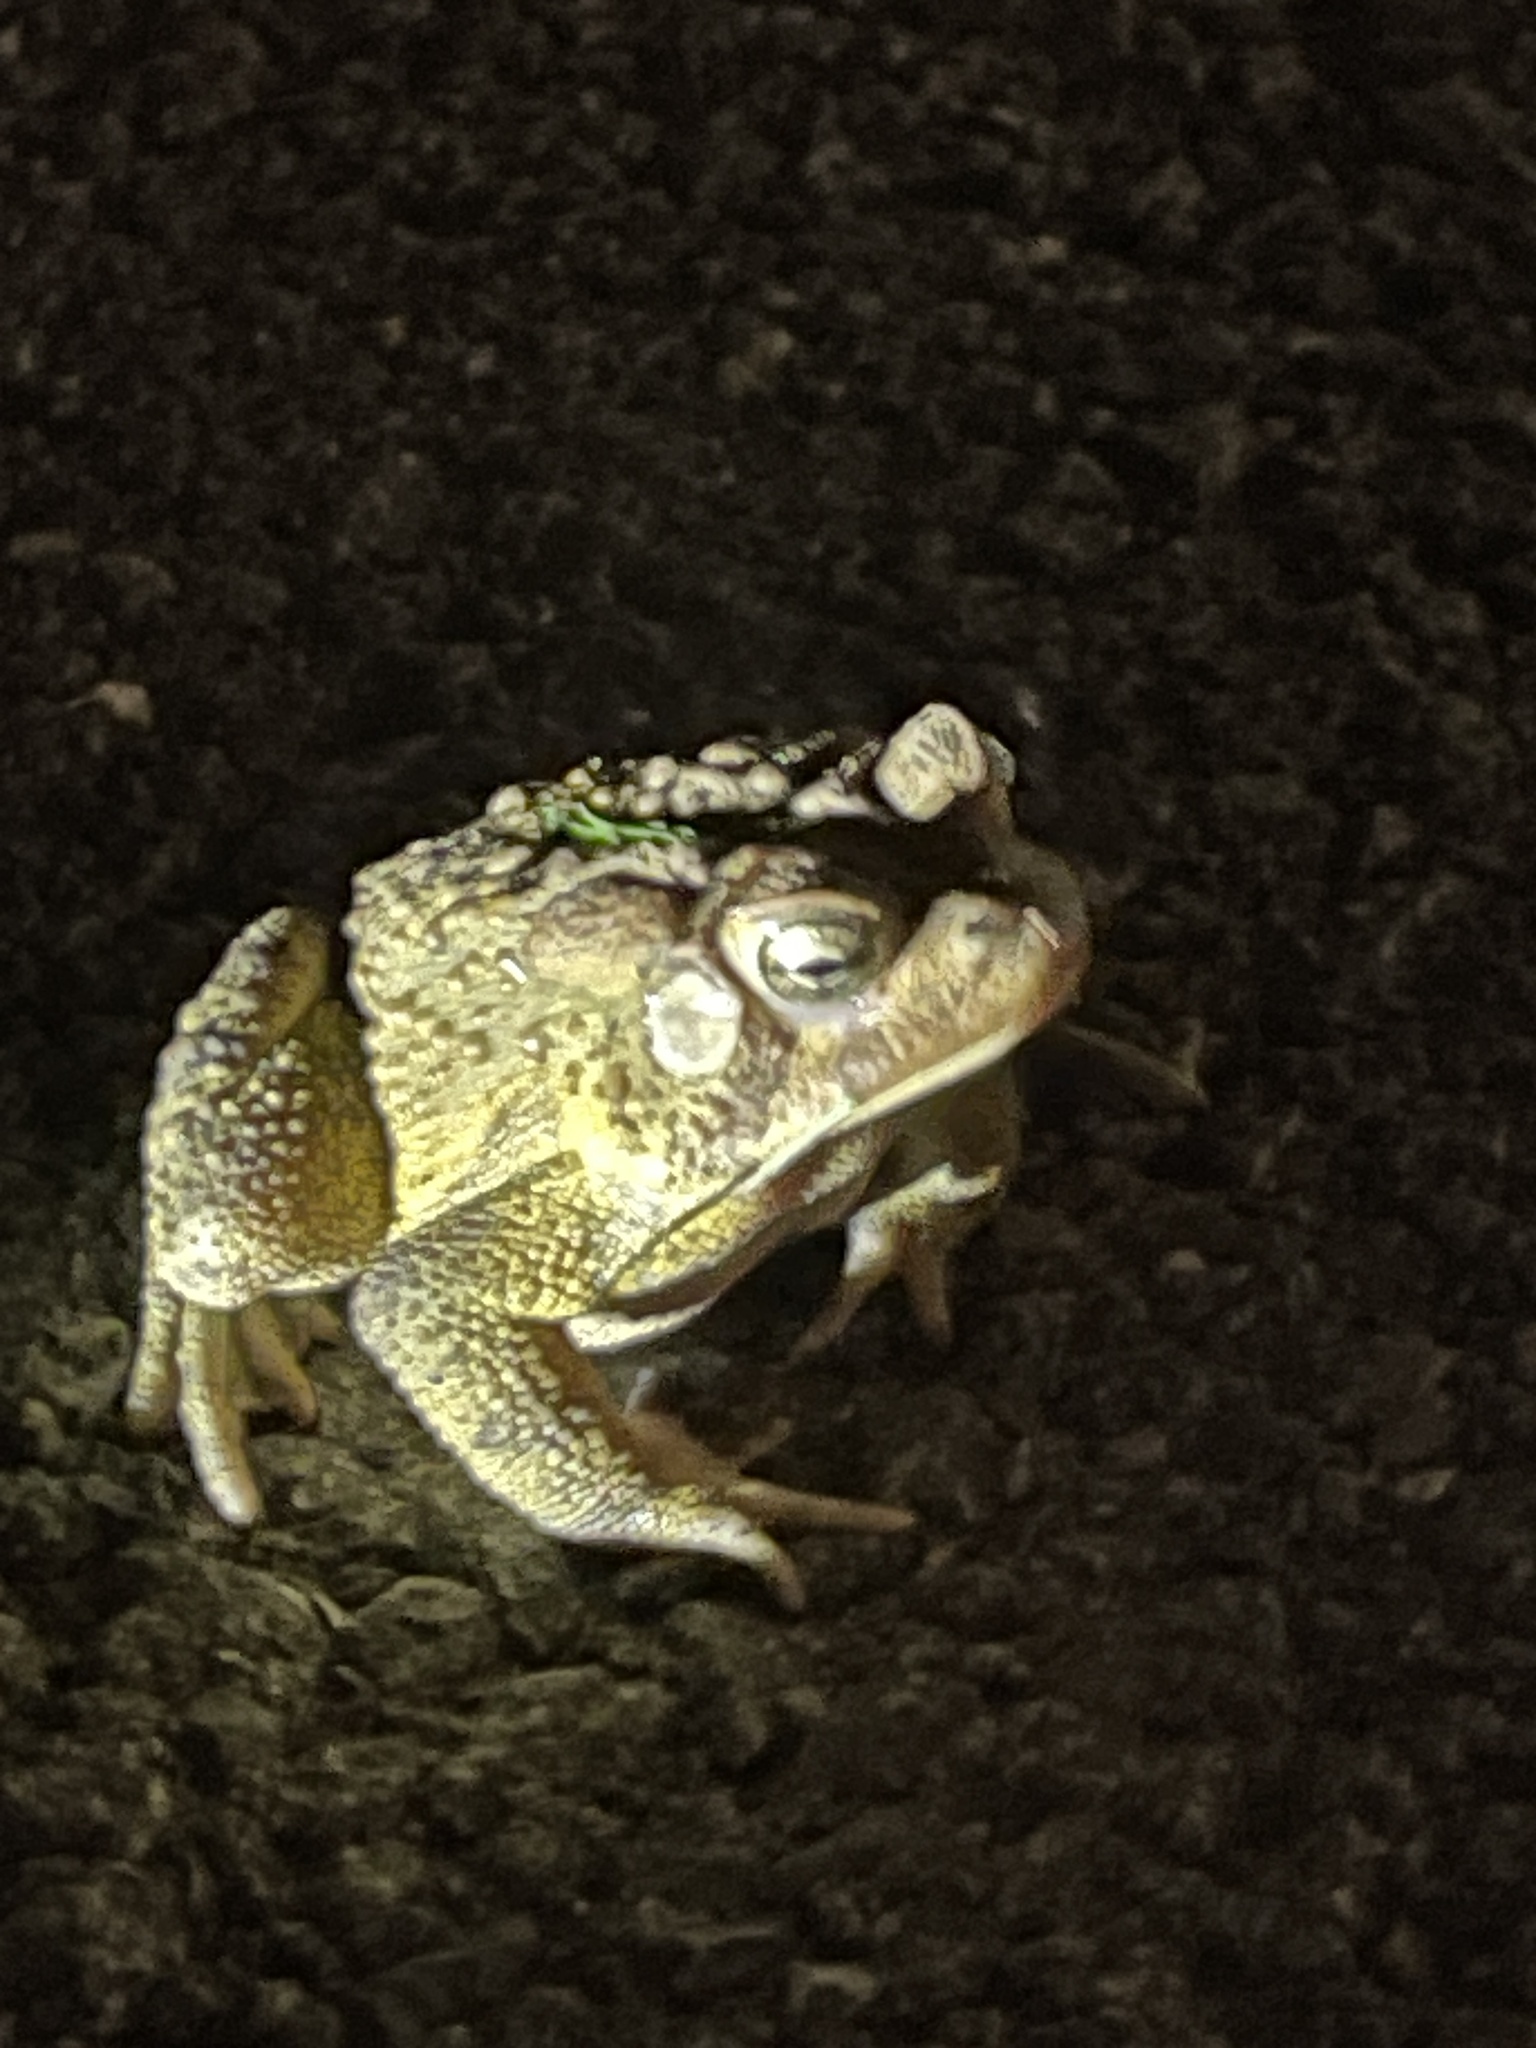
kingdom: Animalia
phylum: Chordata
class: Amphibia
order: Anura
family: Bufonidae
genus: Anaxyrus
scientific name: Anaxyrus americanus
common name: American toad
